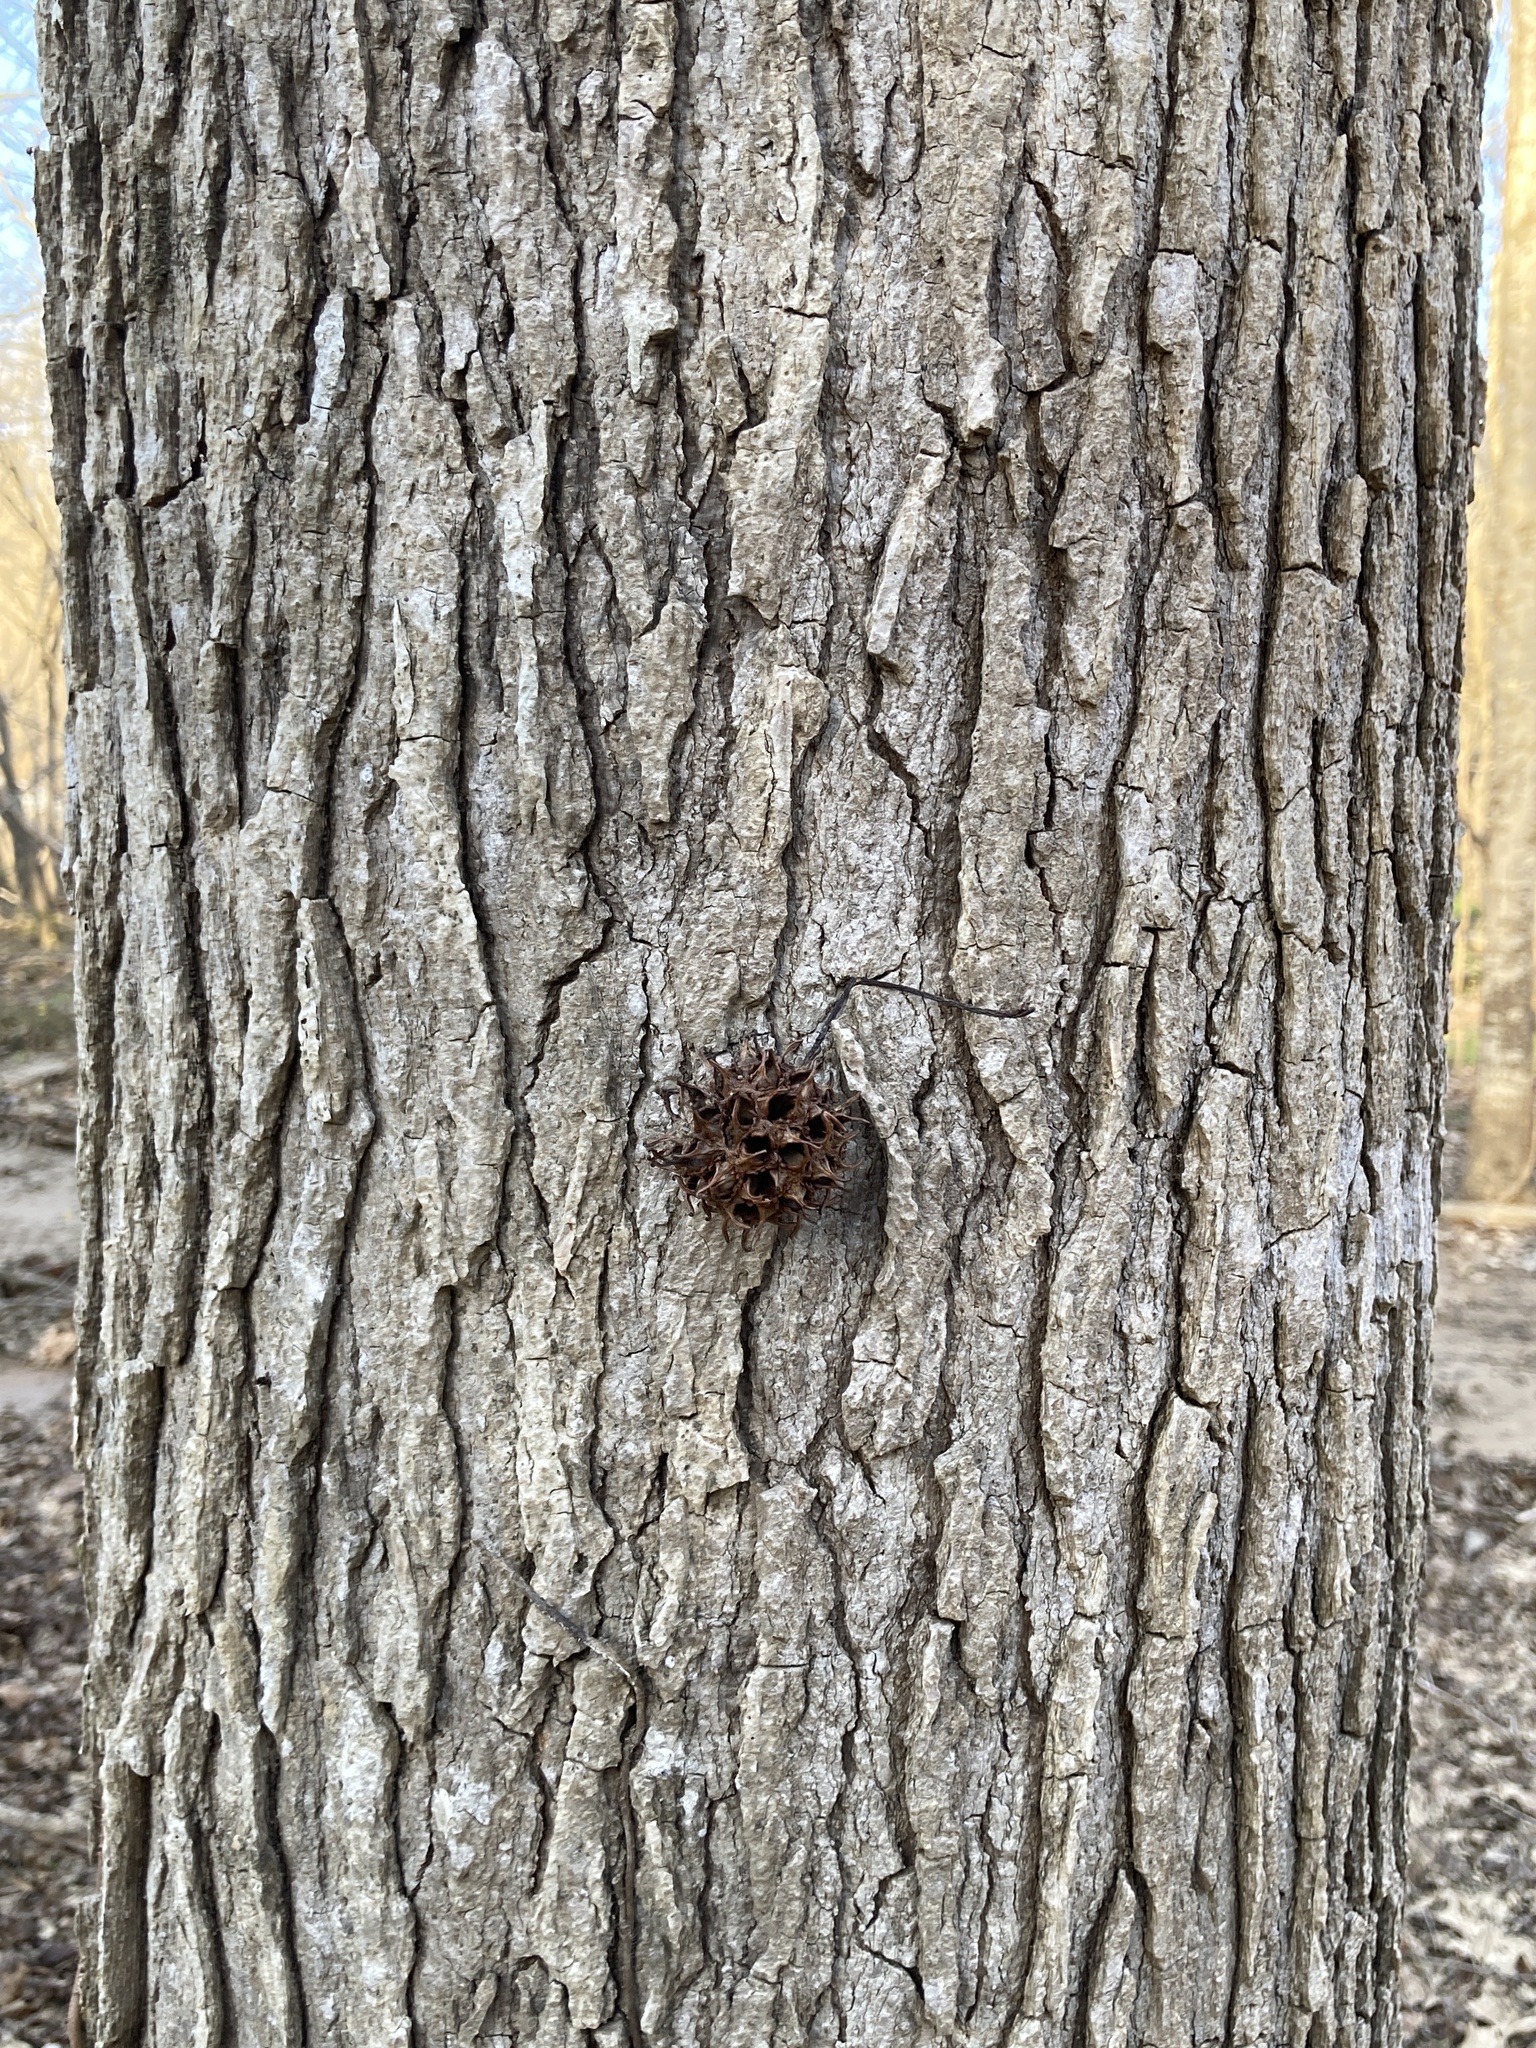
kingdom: Plantae
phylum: Tracheophyta
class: Magnoliopsida
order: Saxifragales
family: Altingiaceae
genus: Liquidambar
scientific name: Liquidambar styraciflua
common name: Sweet gum
